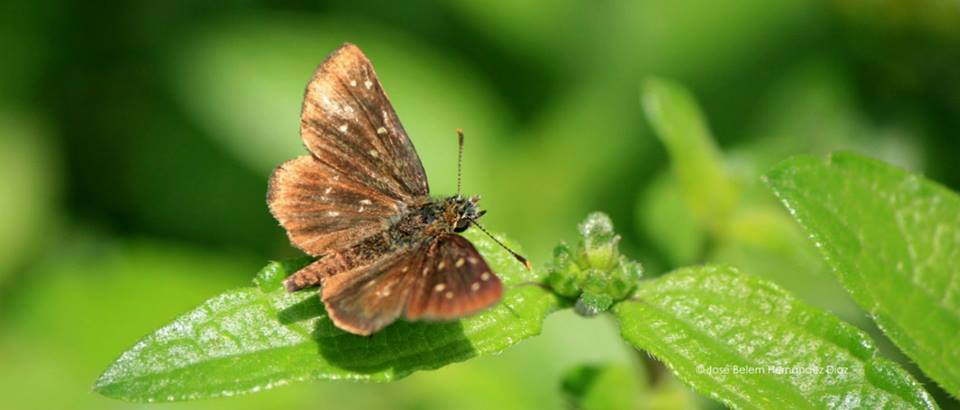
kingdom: Animalia
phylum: Arthropoda
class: Insecta
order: Lepidoptera
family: Hesperiidae
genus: Piruna
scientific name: Piruna aea
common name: Many-spotted skipperling
